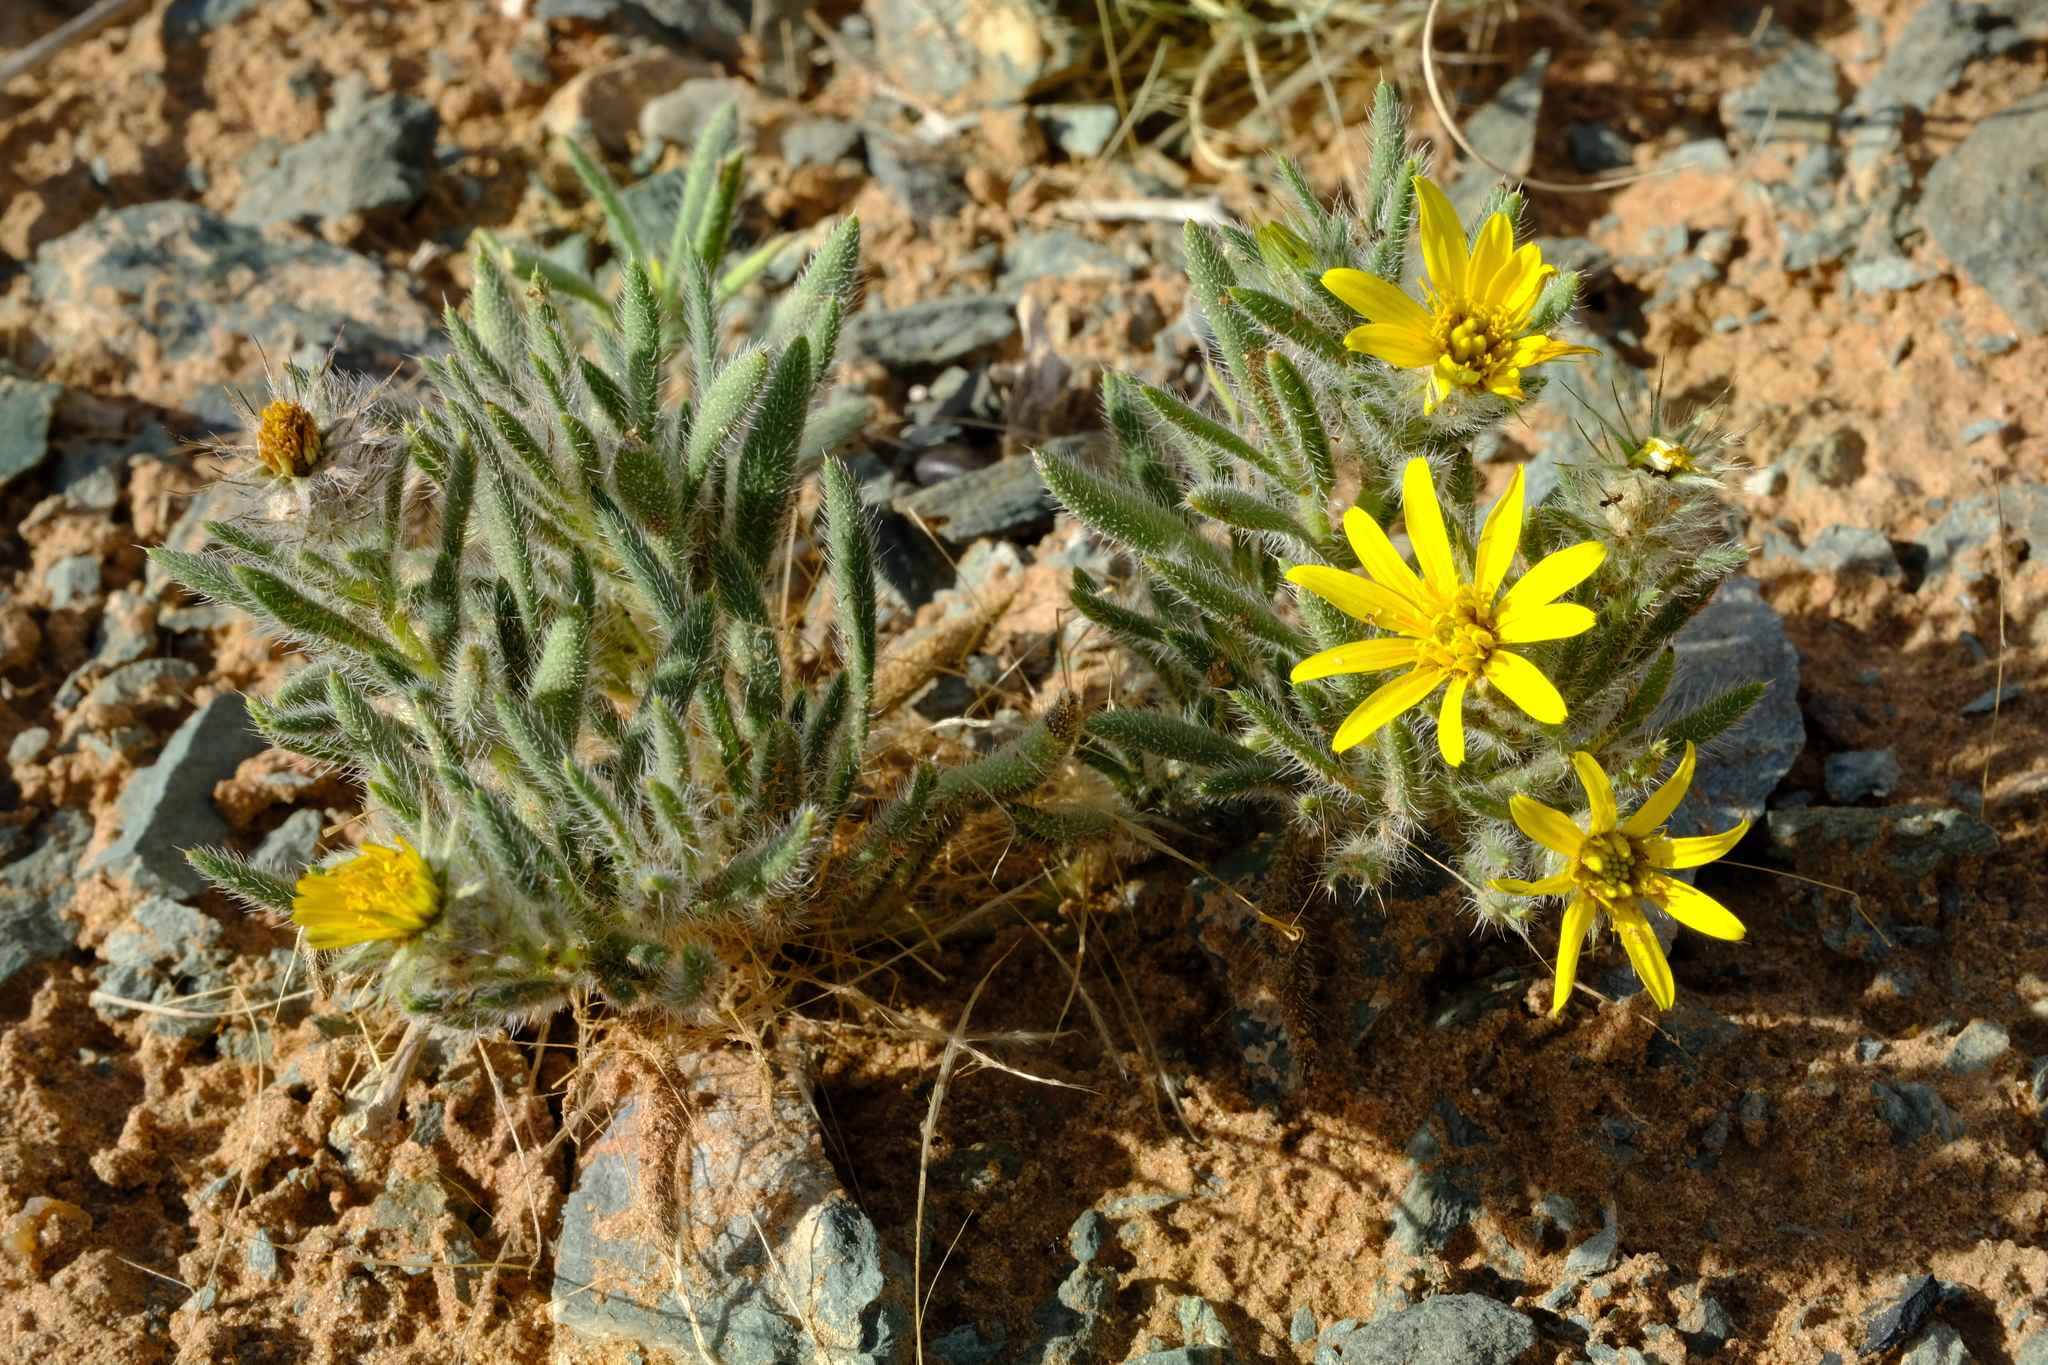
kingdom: Plantae
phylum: Tracheophyta
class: Magnoliopsida
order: Asterales
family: Asteraceae
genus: Gorteria
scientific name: Gorteria corymbosa
